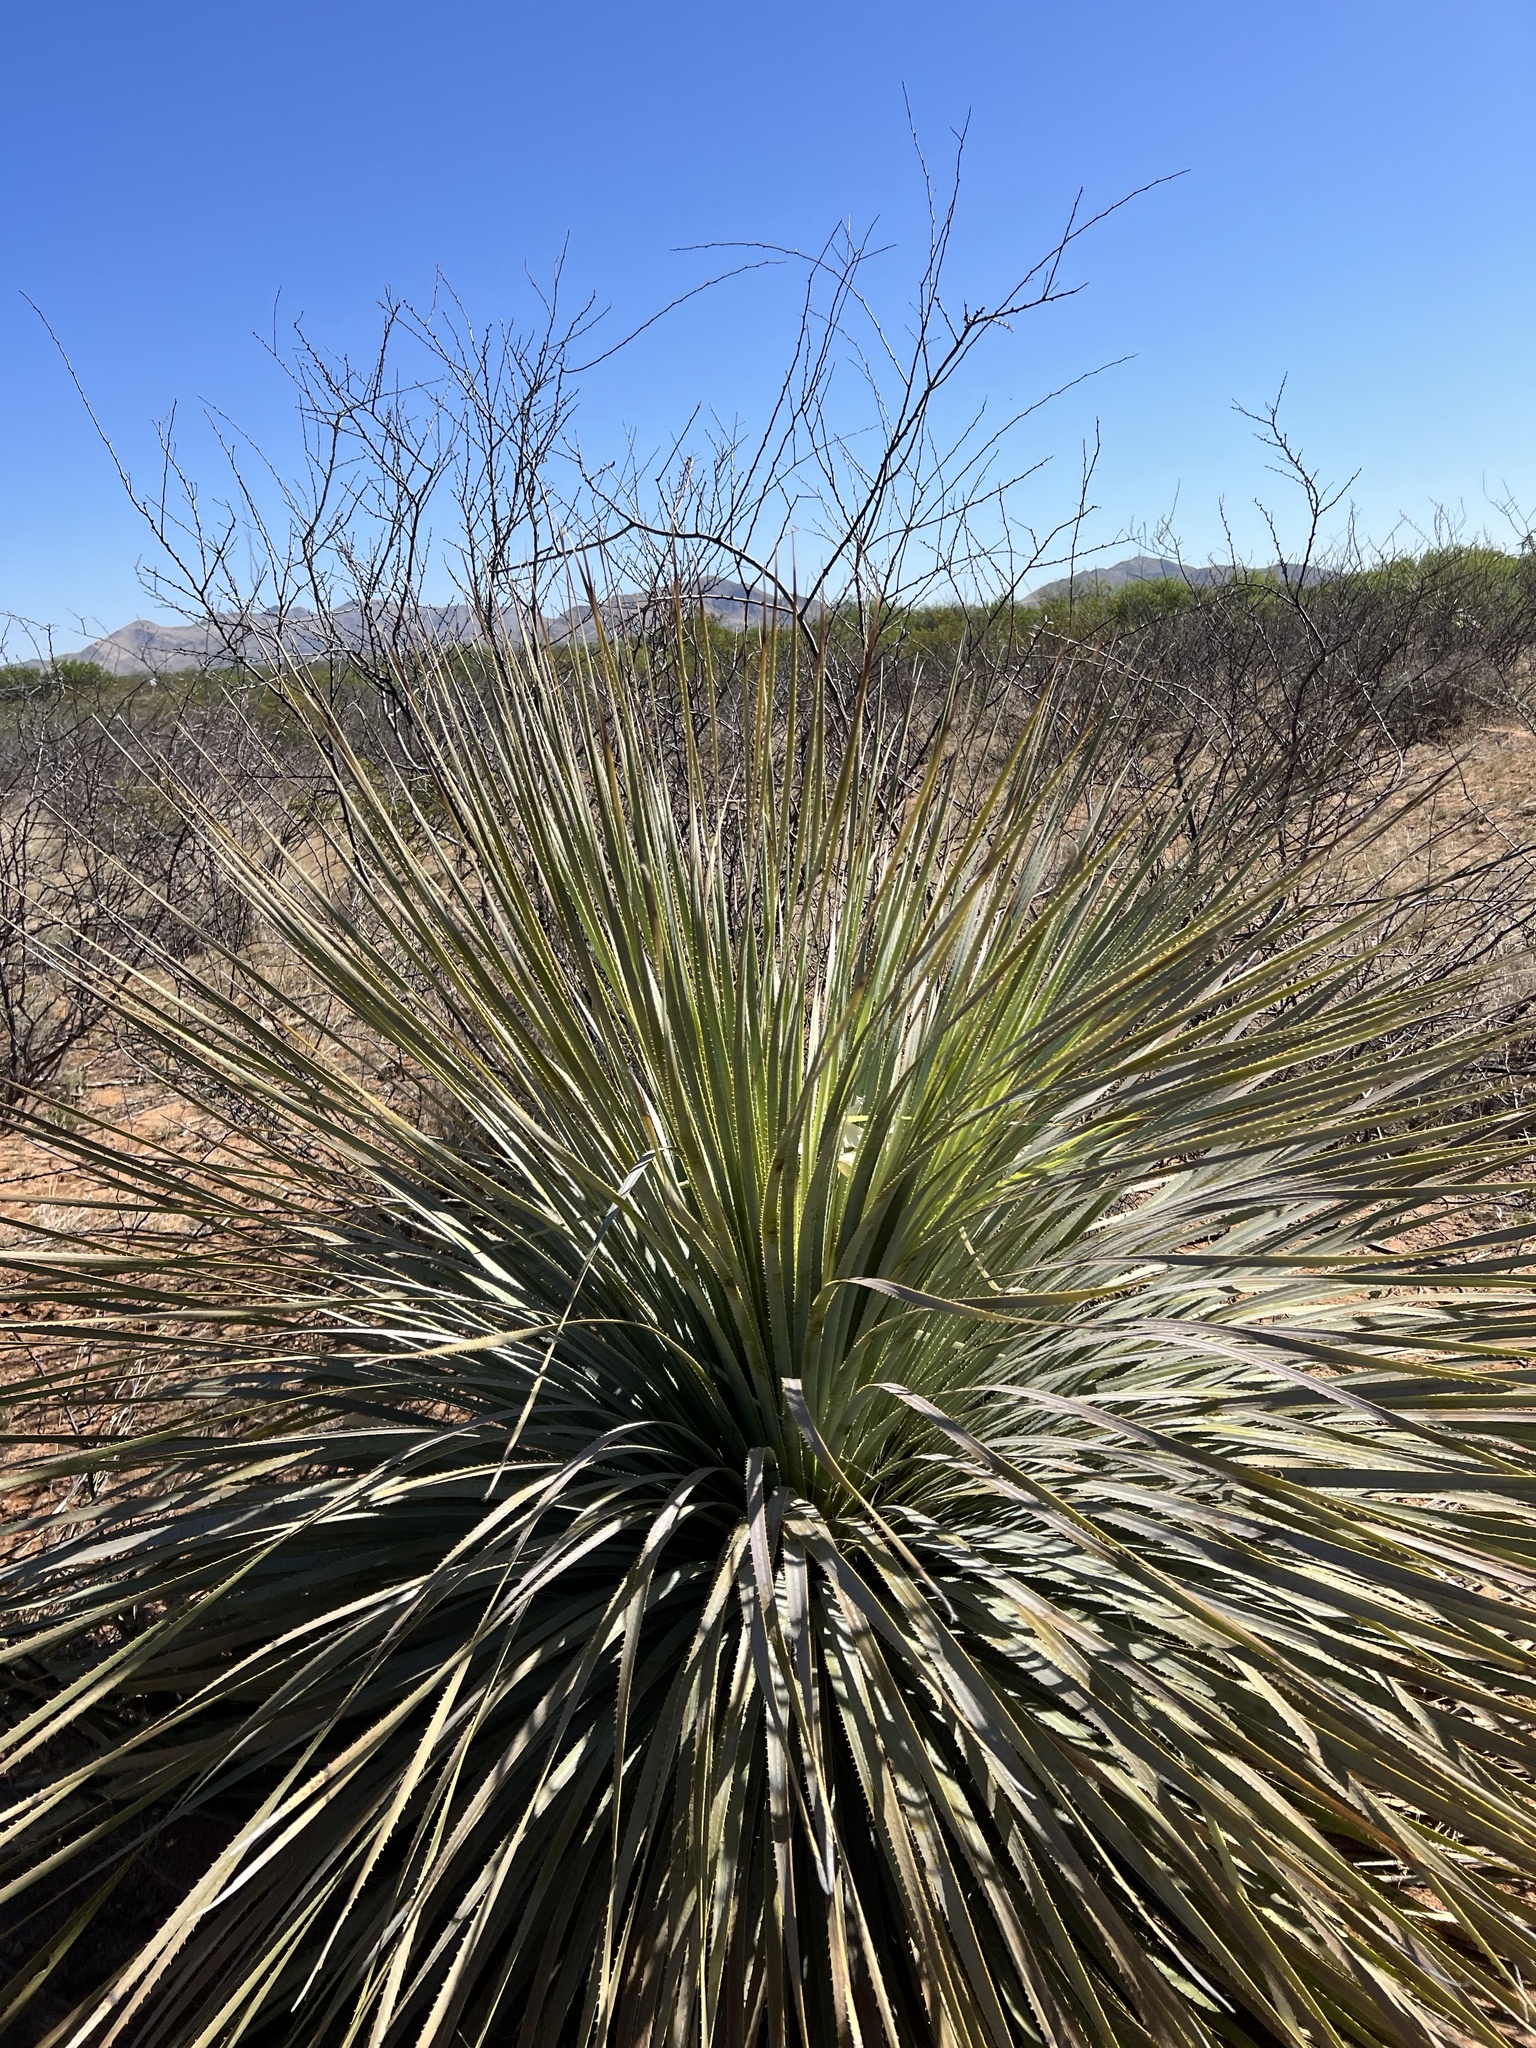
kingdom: Plantae
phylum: Tracheophyta
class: Liliopsida
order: Asparagales
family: Asparagaceae
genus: Dasylirion
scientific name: Dasylirion wheeleri
